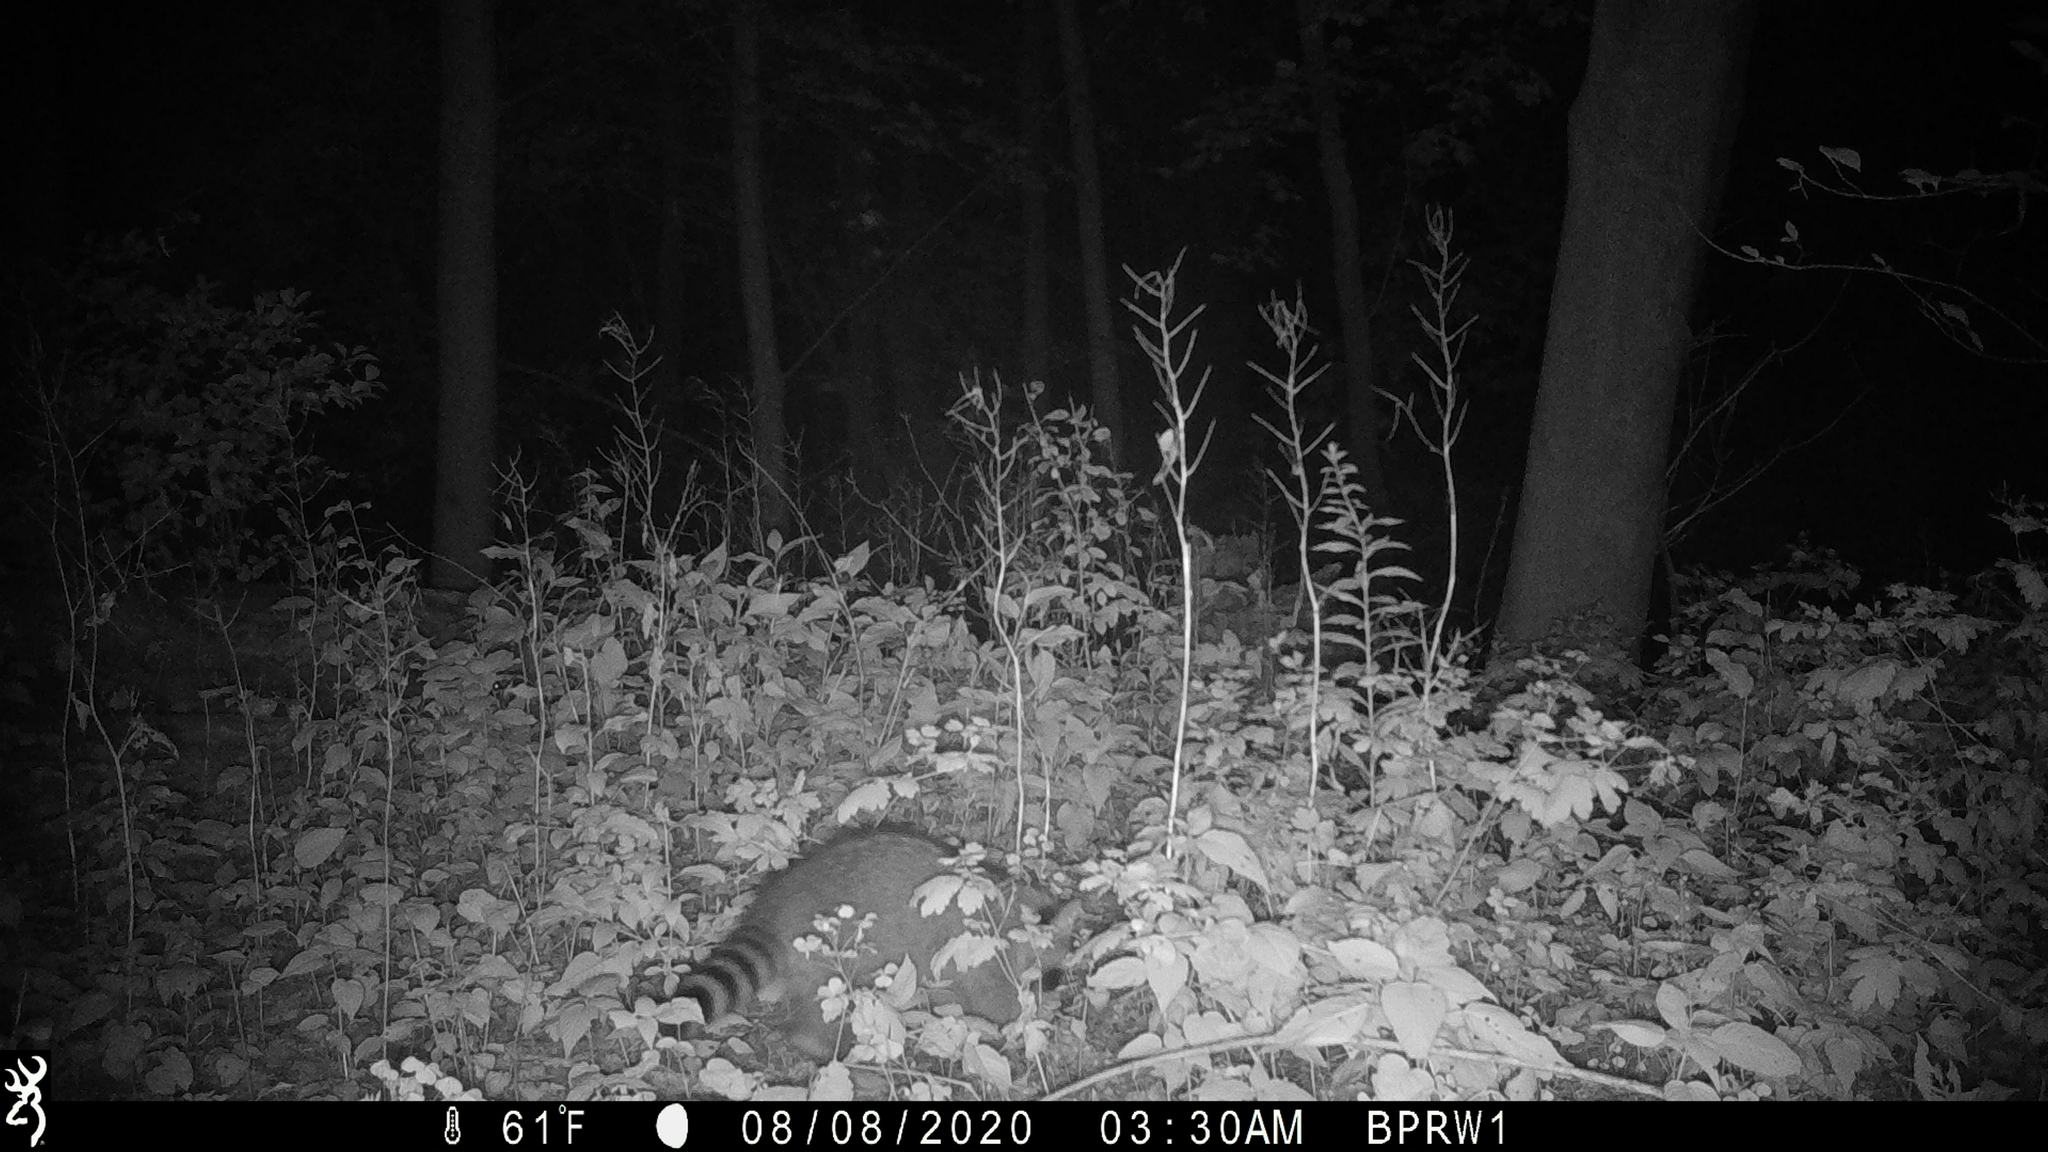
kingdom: Animalia
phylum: Chordata
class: Mammalia
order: Carnivora
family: Procyonidae
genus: Procyon
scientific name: Procyon lotor
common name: Raccoon
